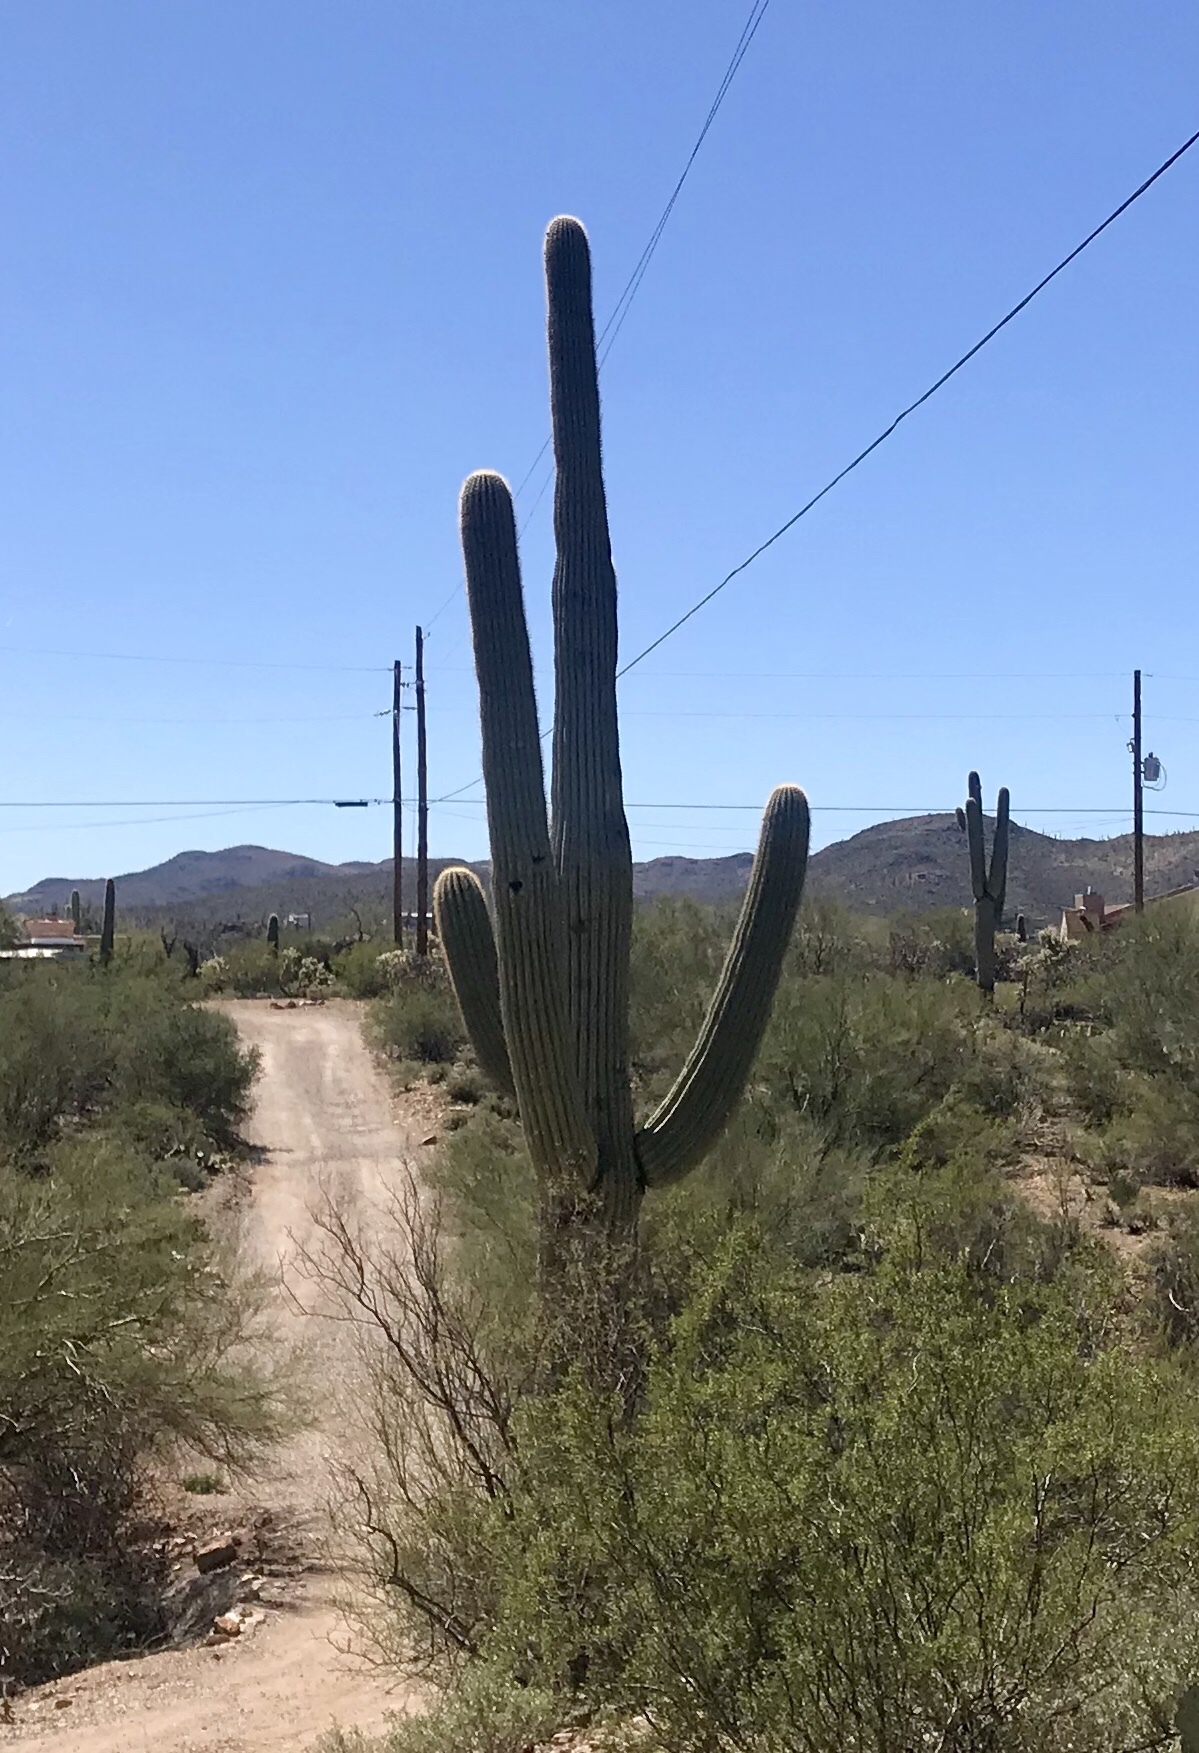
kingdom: Plantae
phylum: Tracheophyta
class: Magnoliopsida
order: Caryophyllales
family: Cactaceae
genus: Carnegiea
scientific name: Carnegiea gigantea
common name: Saguaro
